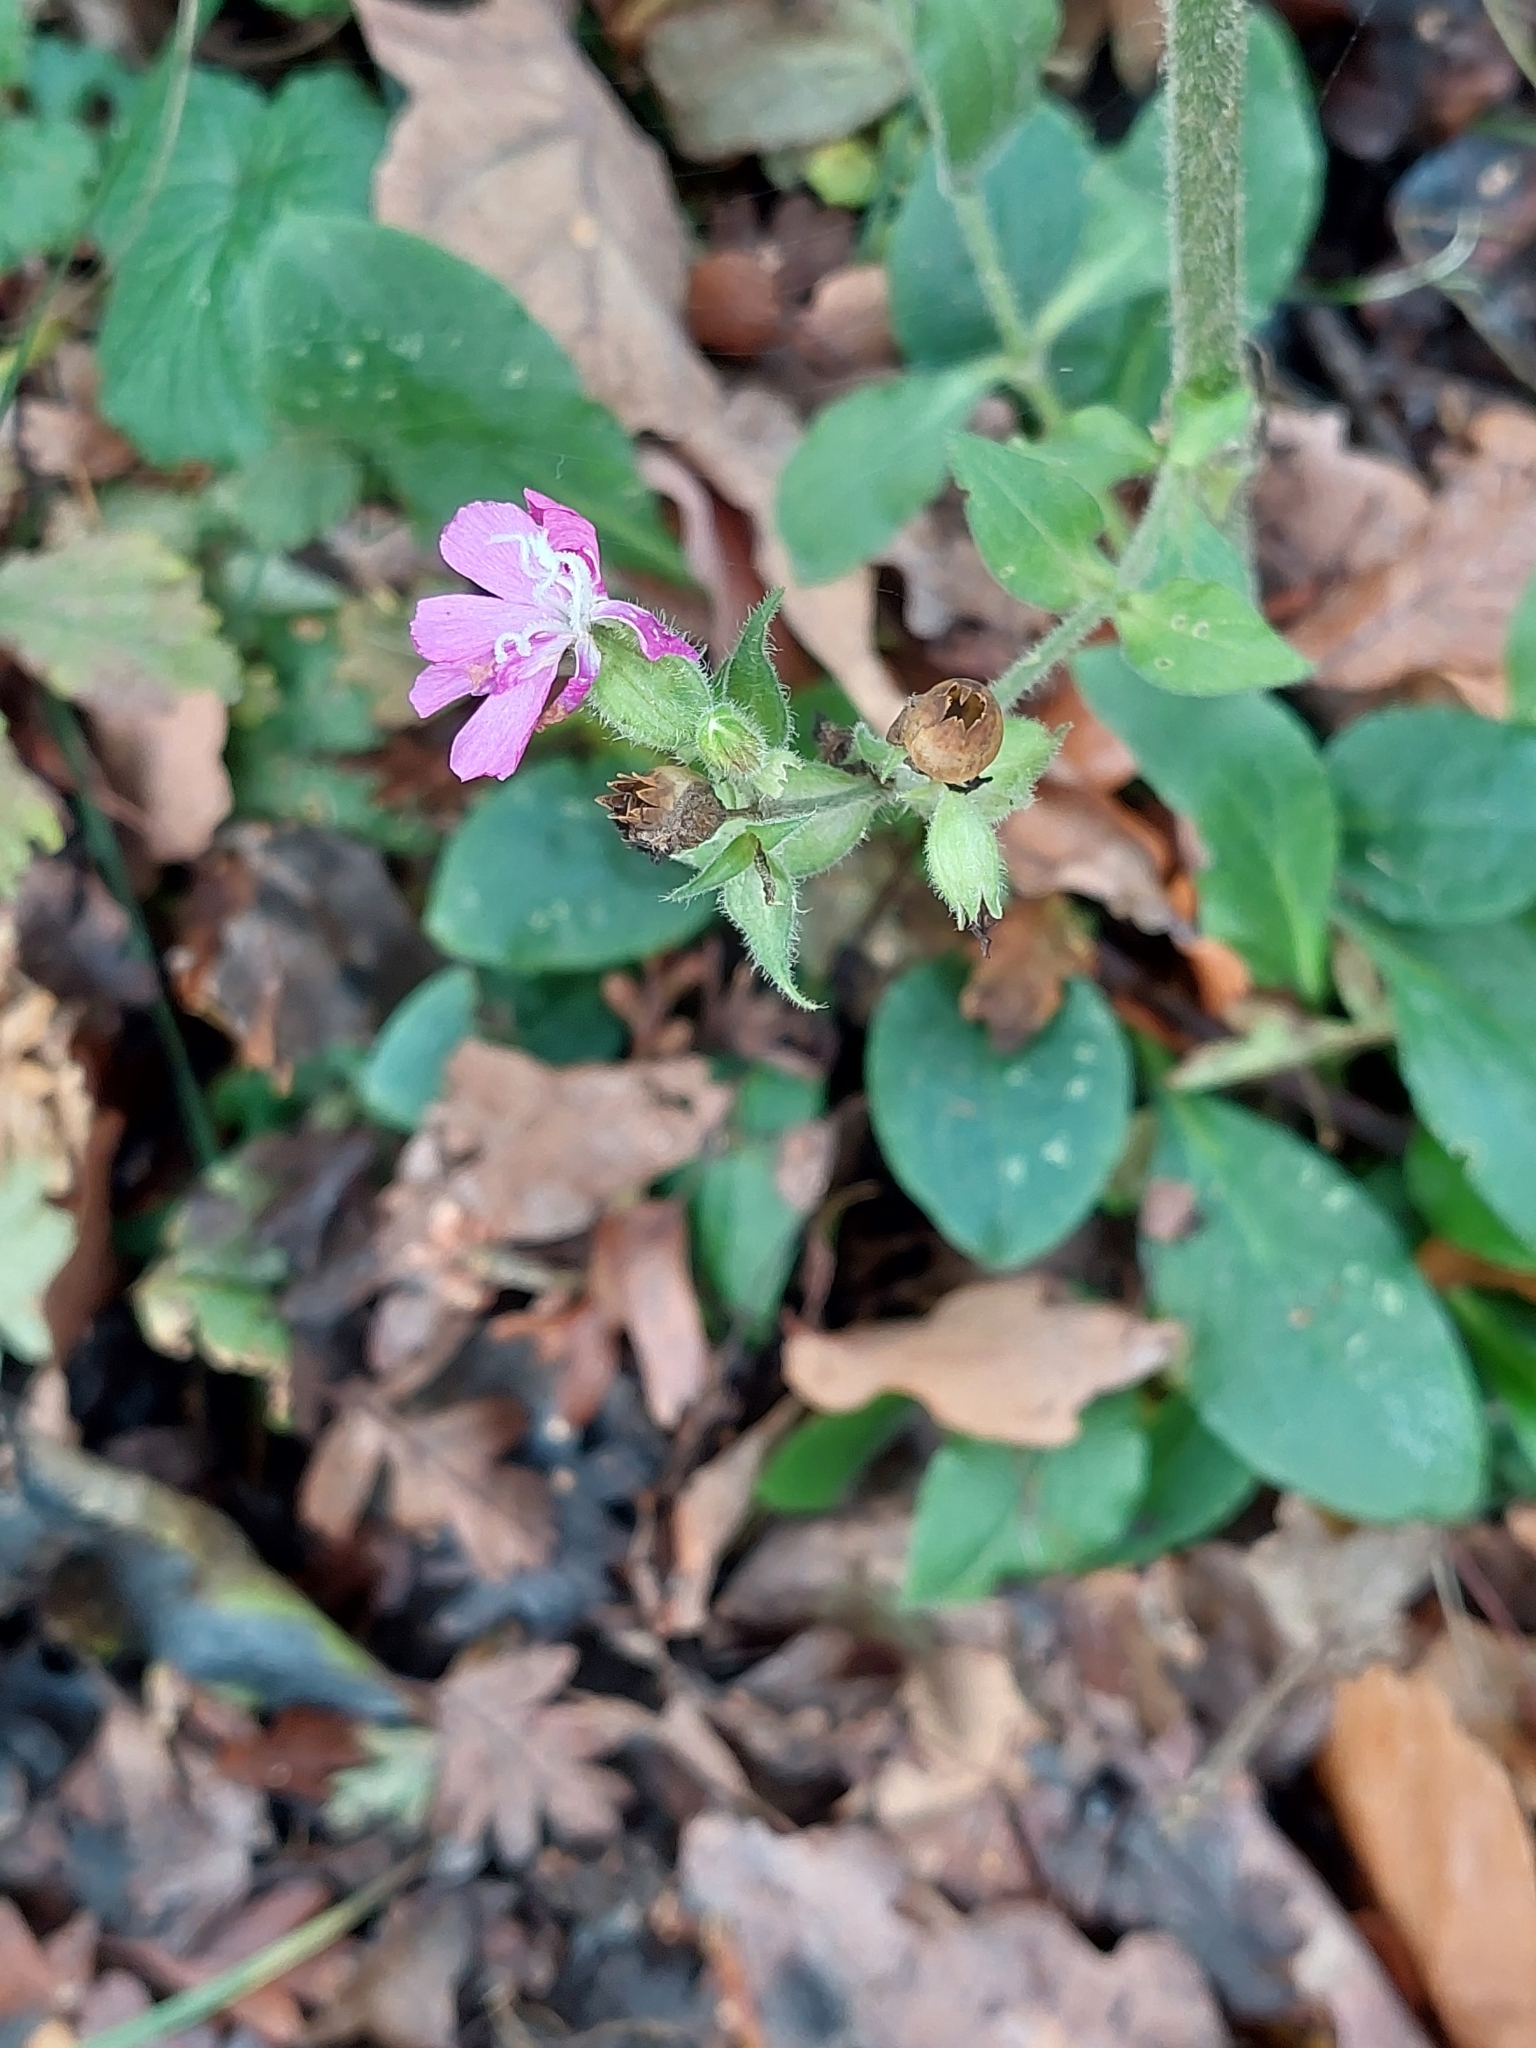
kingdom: Plantae
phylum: Tracheophyta
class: Magnoliopsida
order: Caryophyllales
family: Caryophyllaceae
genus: Silene
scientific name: Silene dioica
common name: Red campion
